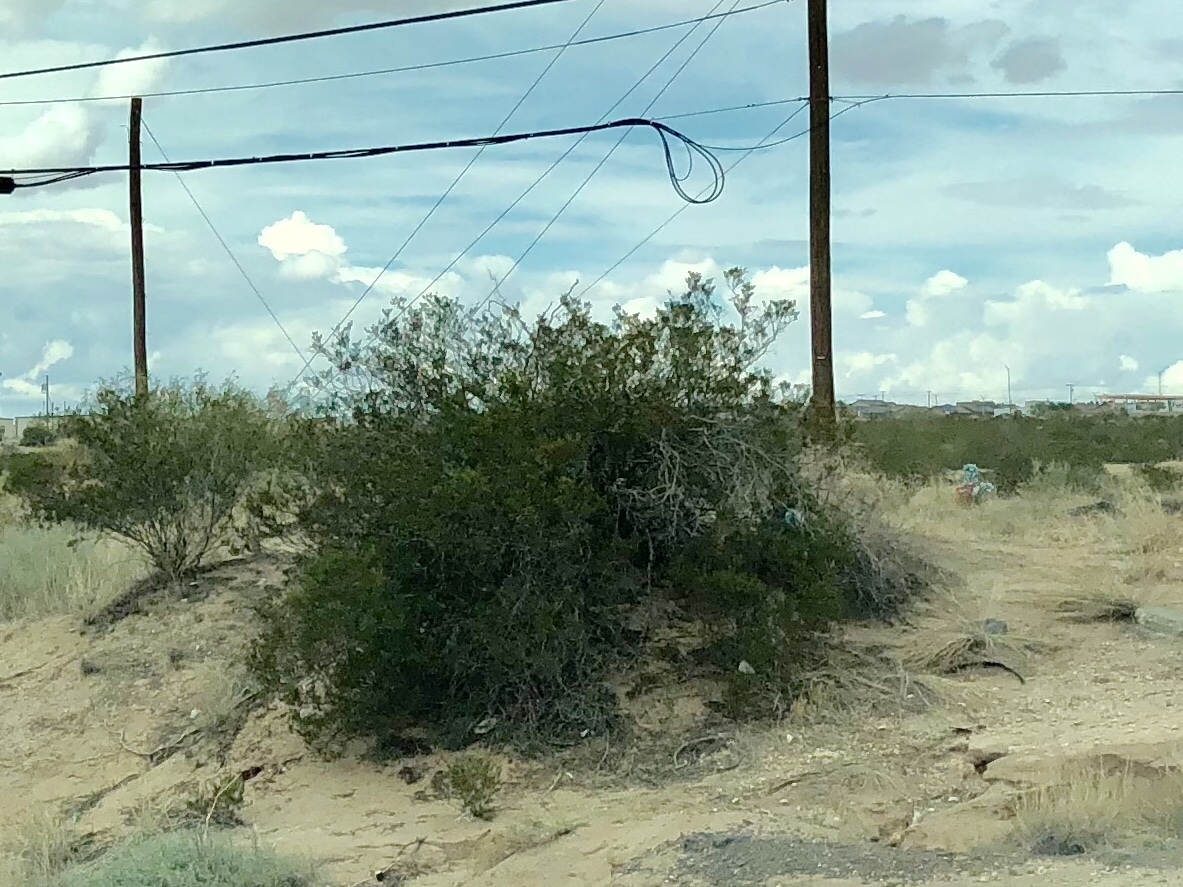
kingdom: Plantae
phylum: Tracheophyta
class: Magnoliopsida
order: Zygophyllales
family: Zygophyllaceae
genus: Larrea
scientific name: Larrea tridentata
